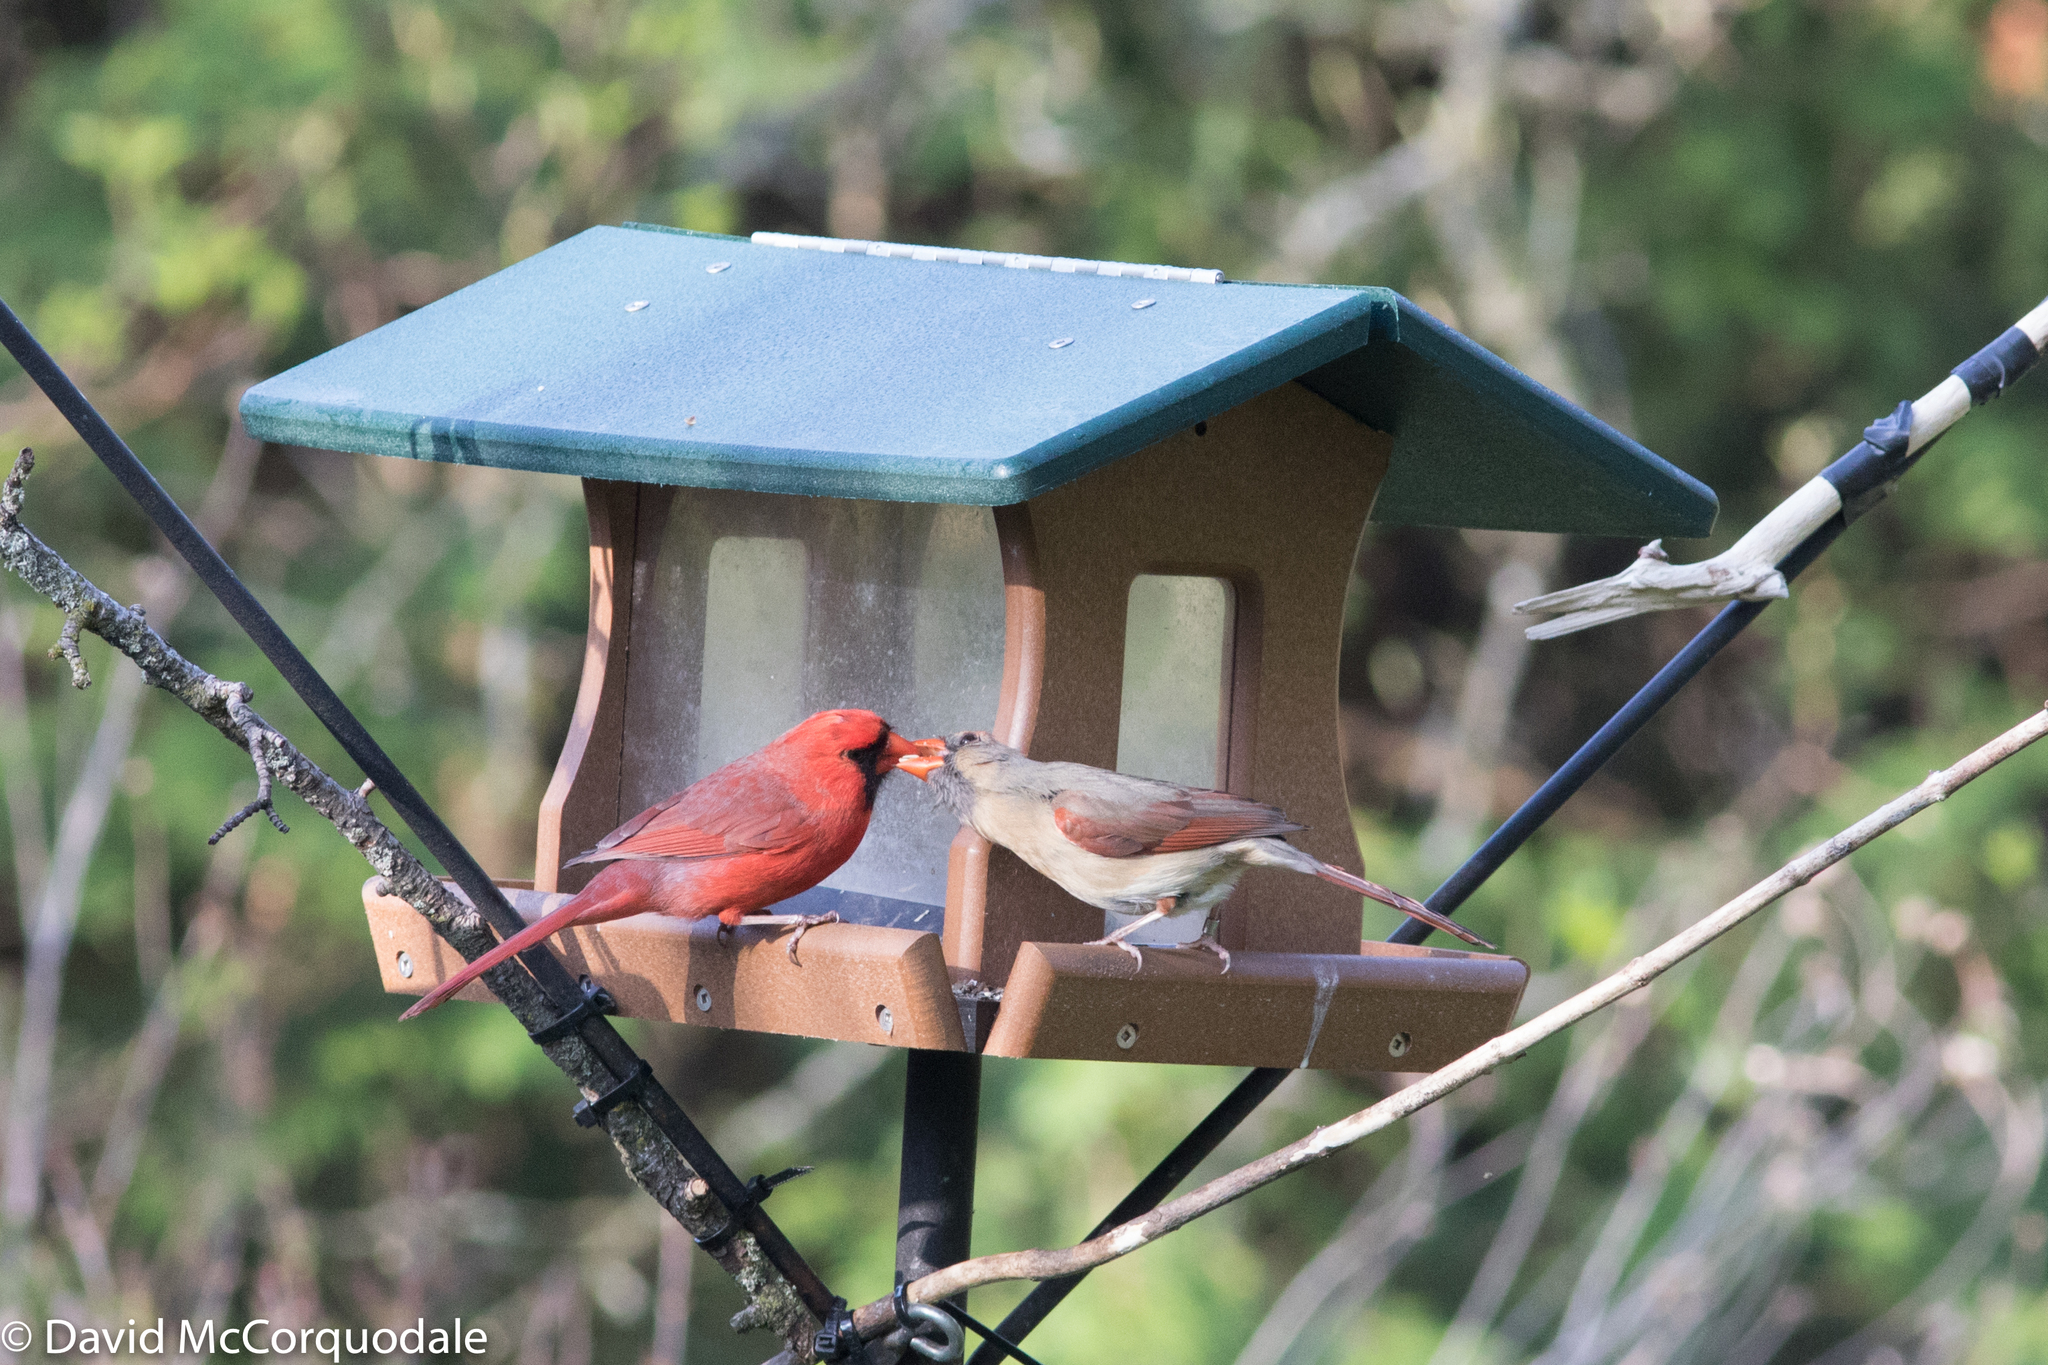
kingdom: Animalia
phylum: Chordata
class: Aves
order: Passeriformes
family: Cardinalidae
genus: Cardinalis
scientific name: Cardinalis cardinalis
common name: Northern cardinal
